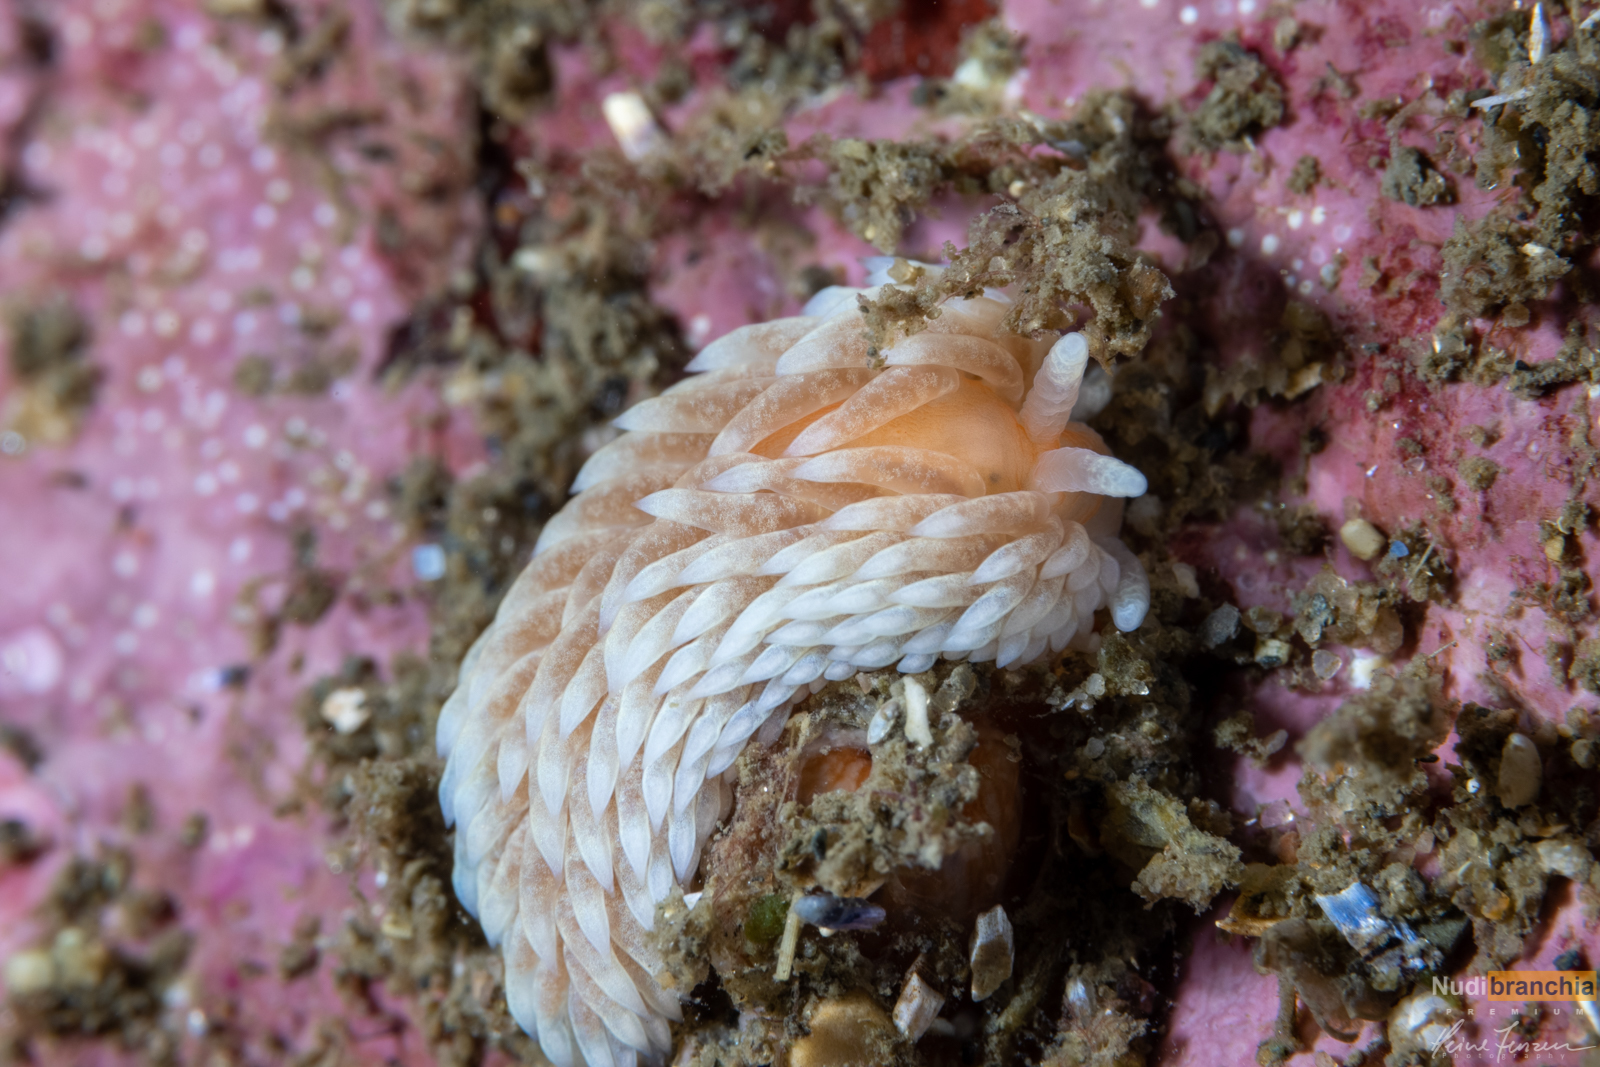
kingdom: Animalia
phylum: Mollusca
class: Gastropoda
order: Nudibranchia
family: Aeolidiidae
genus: Aeolidiella
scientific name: Aeolidiella glauca
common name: Orange-brown aeolid
